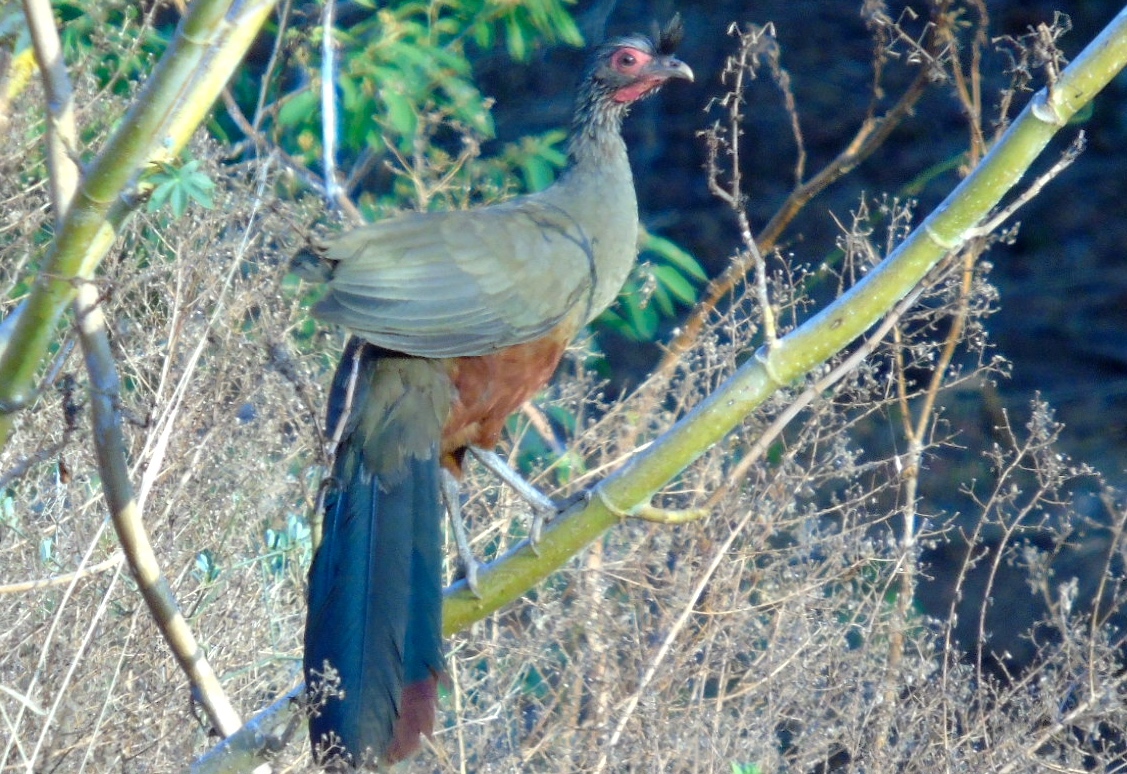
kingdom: Animalia
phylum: Chordata
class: Aves
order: Galliformes
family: Cracidae
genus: Ortalis
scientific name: Ortalis wagleri
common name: Rufous-bellied chachalaca
